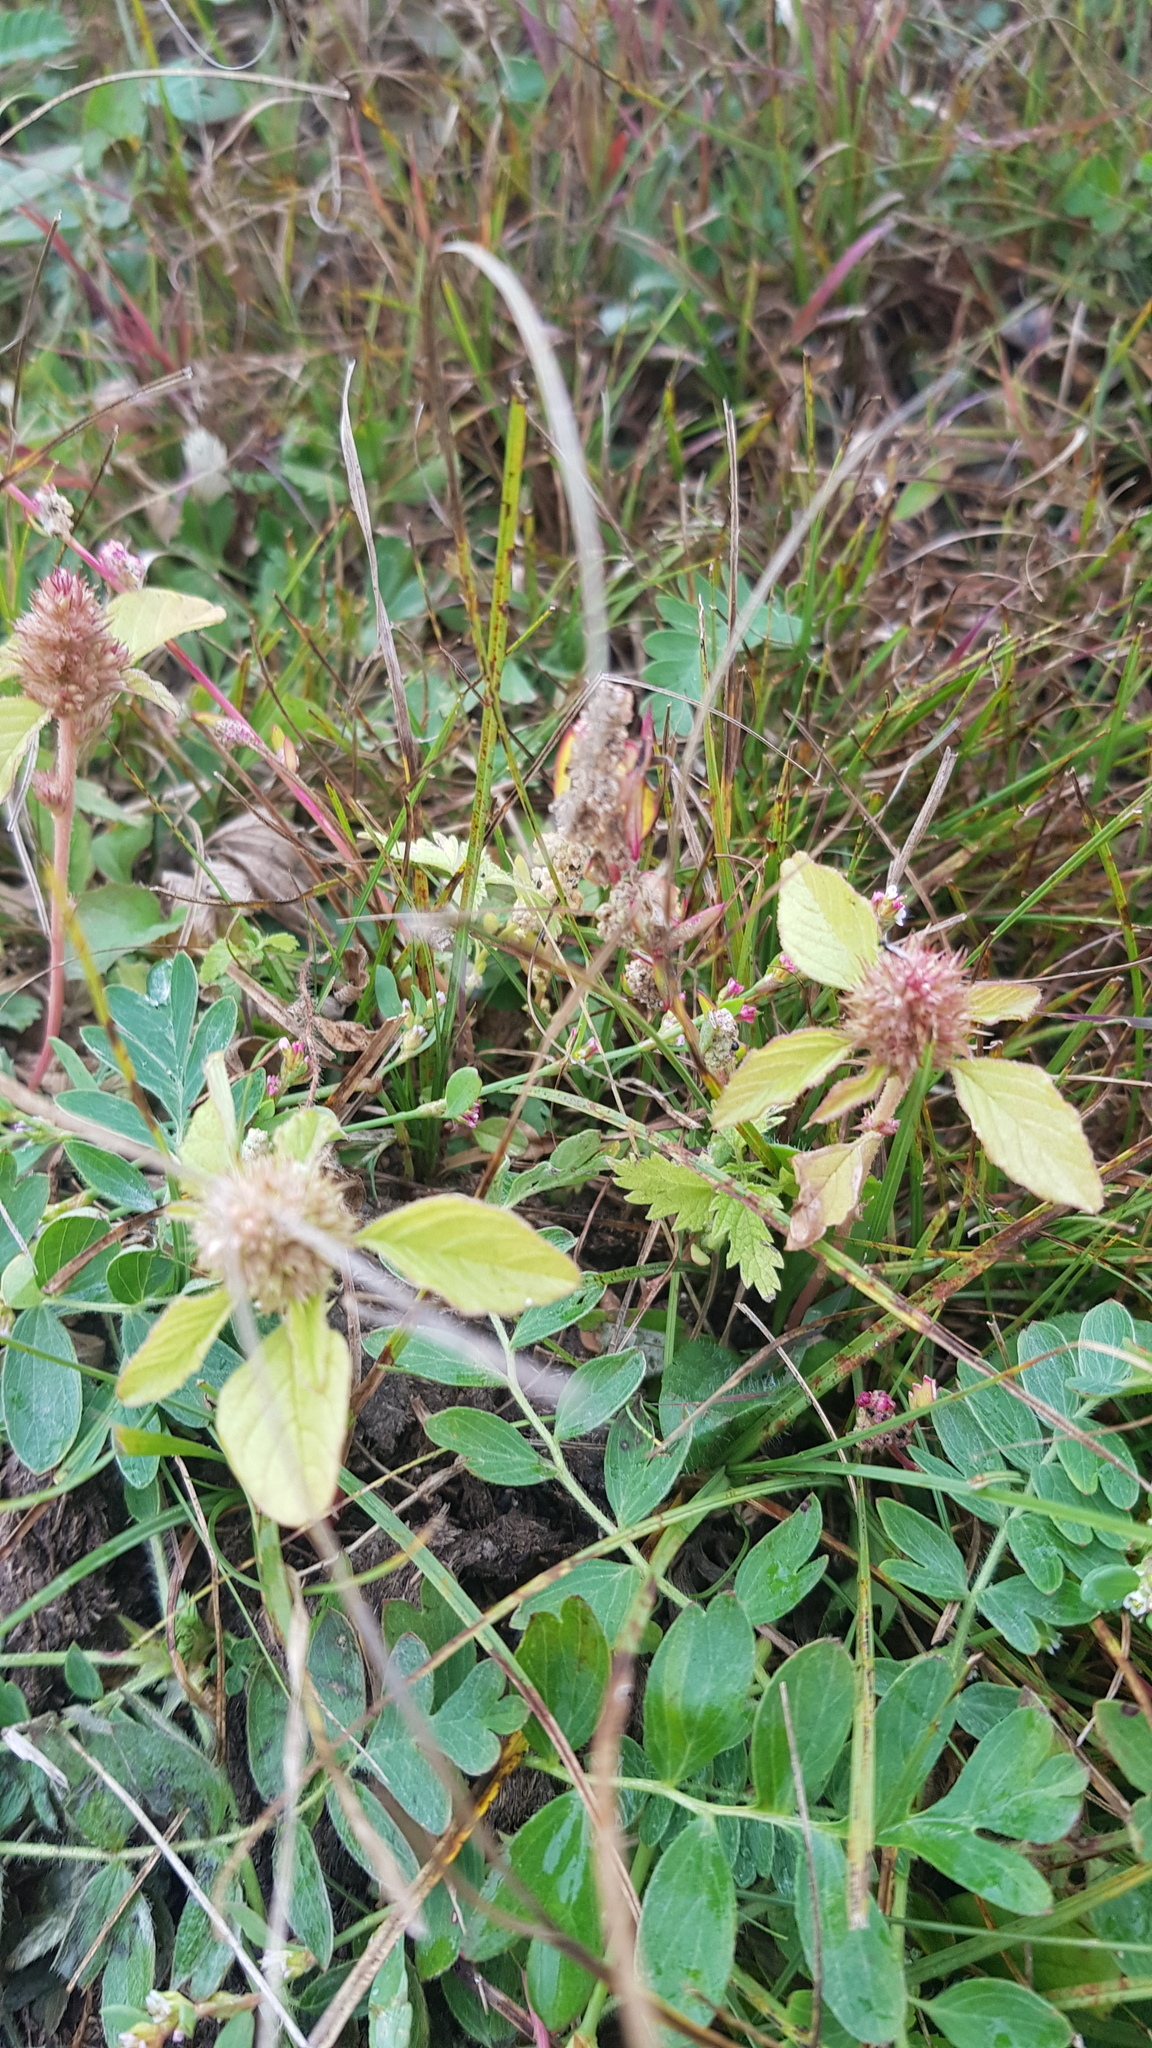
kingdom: Plantae
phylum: Tracheophyta
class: Magnoliopsida
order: Caryophyllales
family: Amaranthaceae
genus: Amaranthus
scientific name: Amaranthus retroflexus
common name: Redroot amaranth
